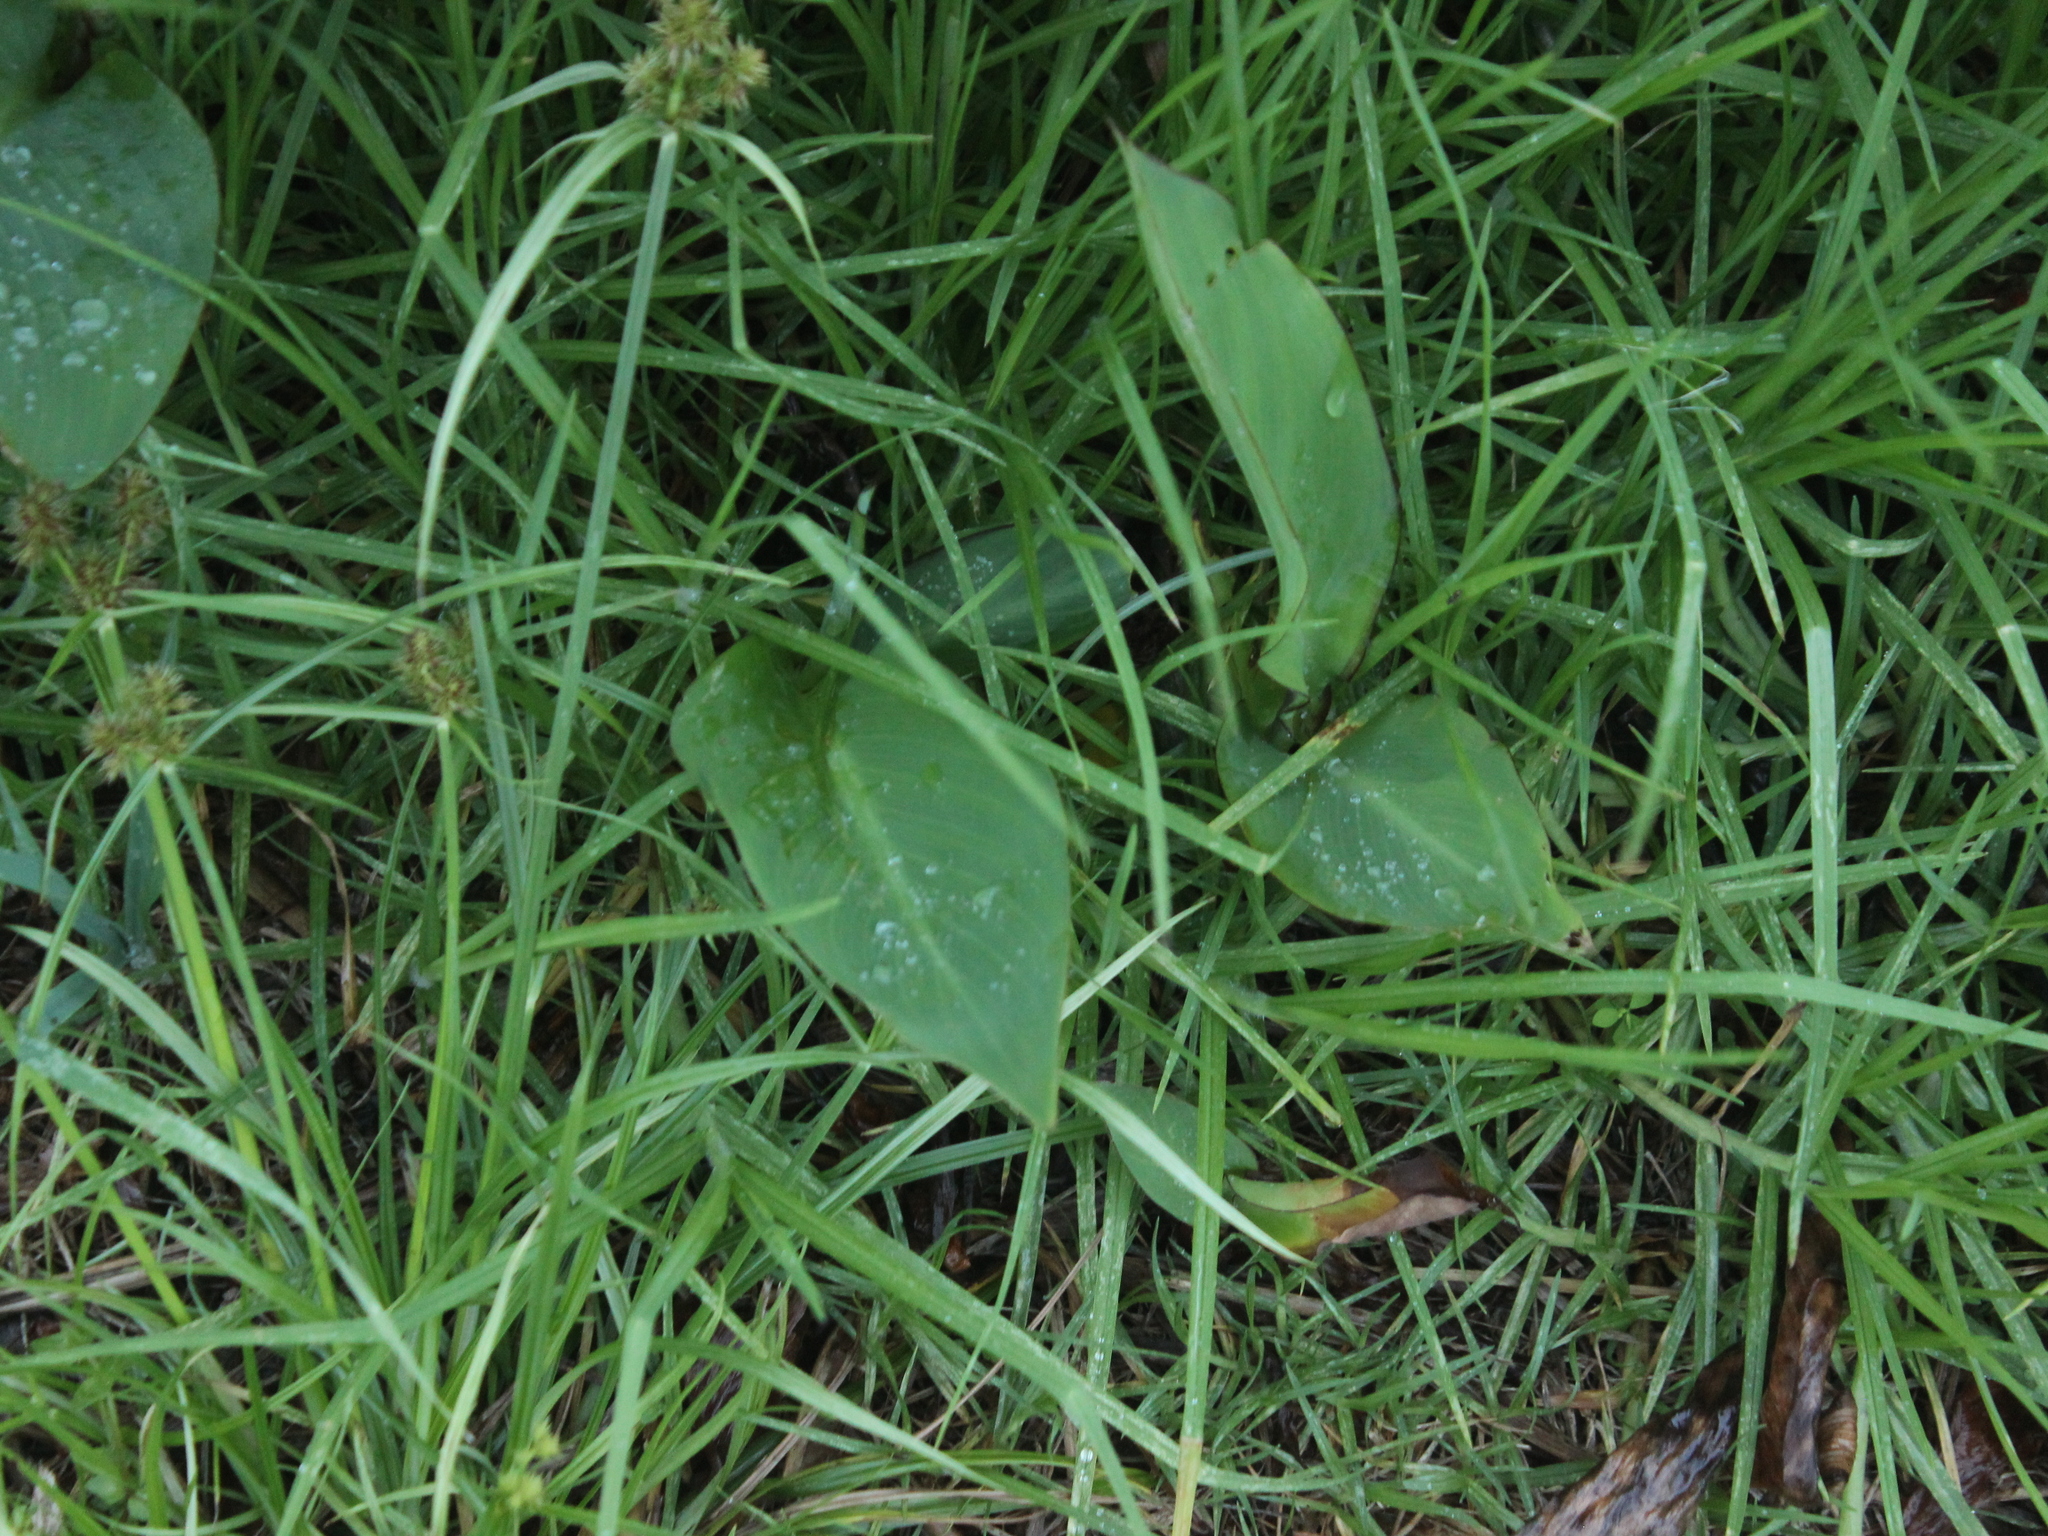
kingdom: Plantae
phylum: Tracheophyta
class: Liliopsida
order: Zingiberales
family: Cannaceae
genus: Canna
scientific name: Canna indica
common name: Indian shot
